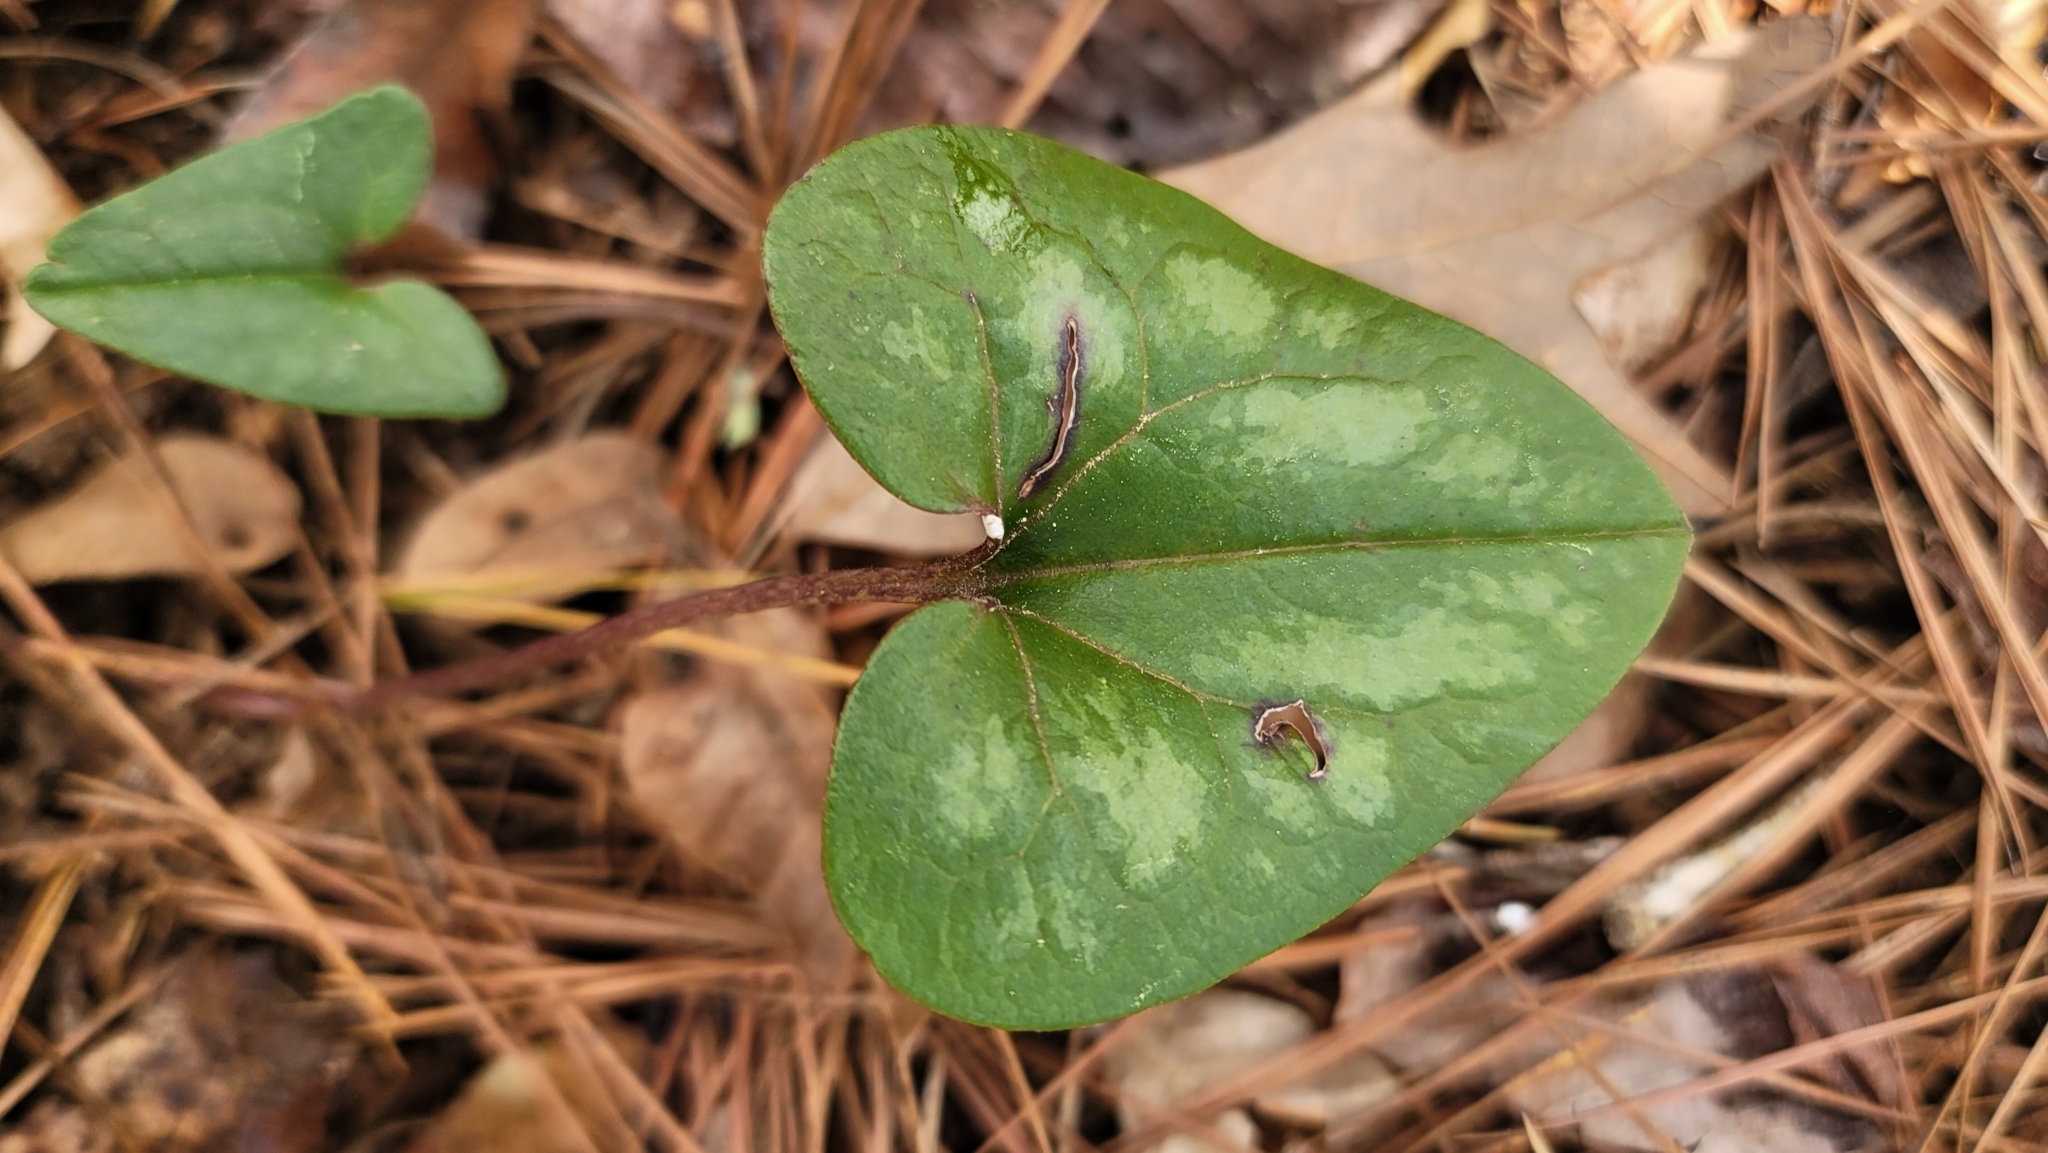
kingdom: Plantae
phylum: Tracheophyta
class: Magnoliopsida
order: Piperales
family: Aristolochiaceae
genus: Hexastylis
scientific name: Hexastylis arifolia
